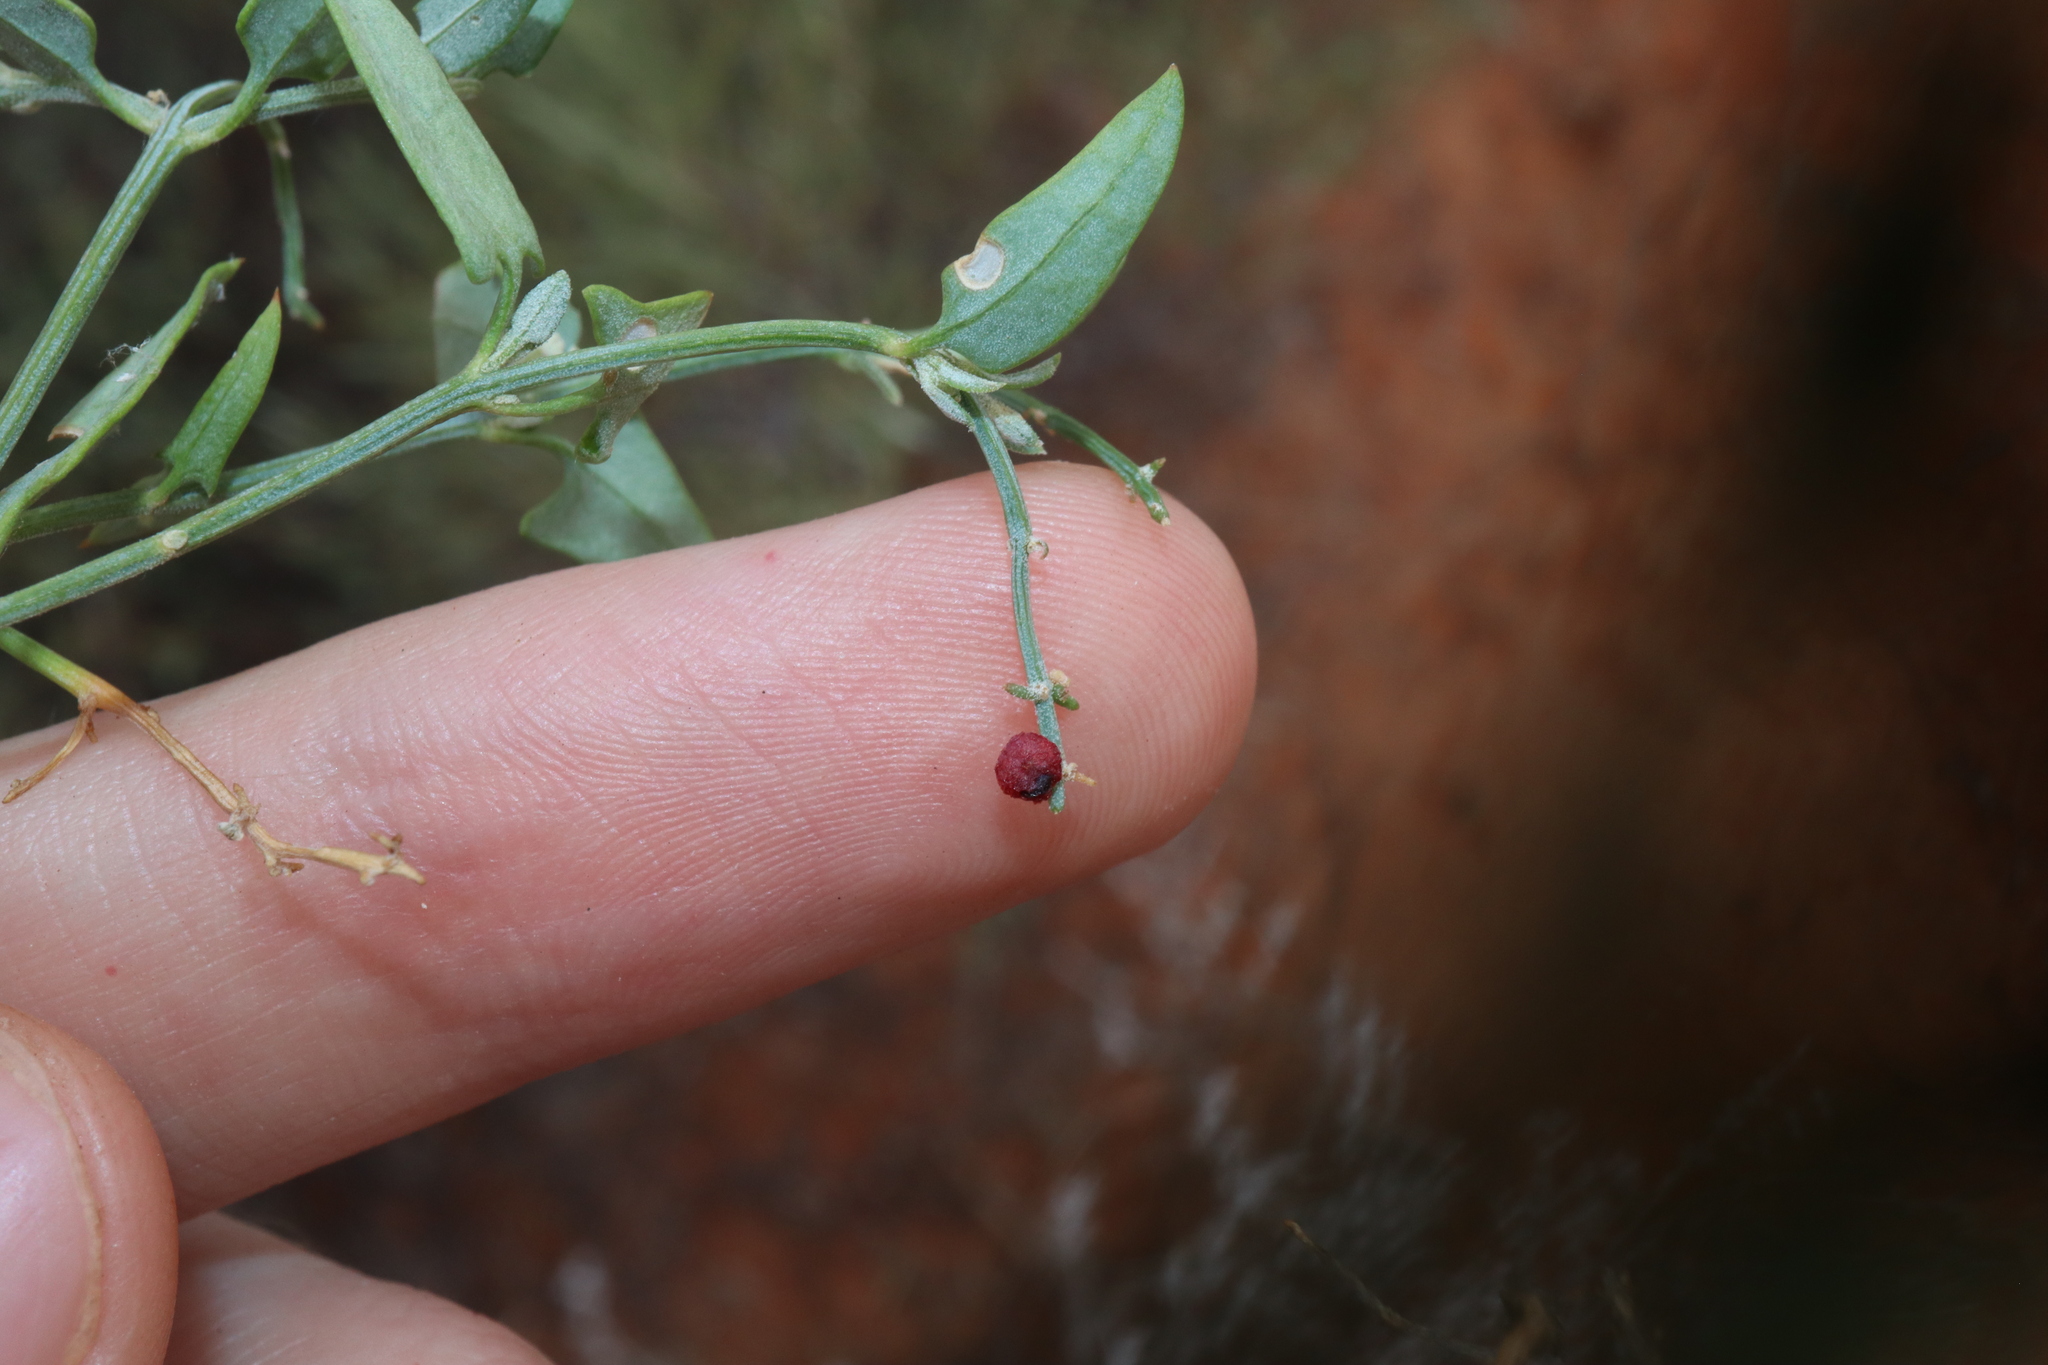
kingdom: Plantae
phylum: Tracheophyta
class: Magnoliopsida
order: Caryophyllales
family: Amaranthaceae
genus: Chenopodium
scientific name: Chenopodium nutans
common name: Climbing-saltbush
